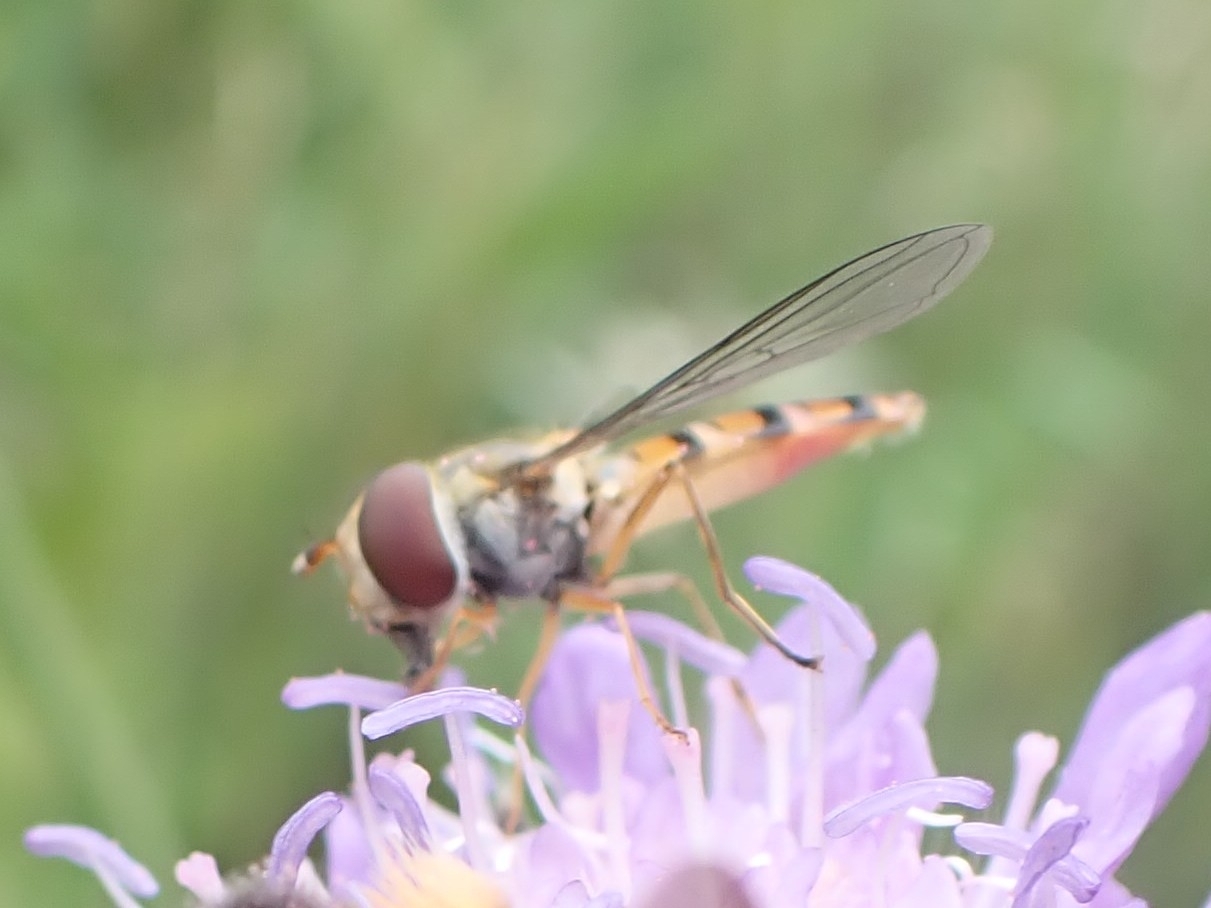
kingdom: Animalia
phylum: Arthropoda
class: Insecta
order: Diptera
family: Syrphidae
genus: Episyrphus
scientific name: Episyrphus balteatus
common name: Marmalade hoverfly
